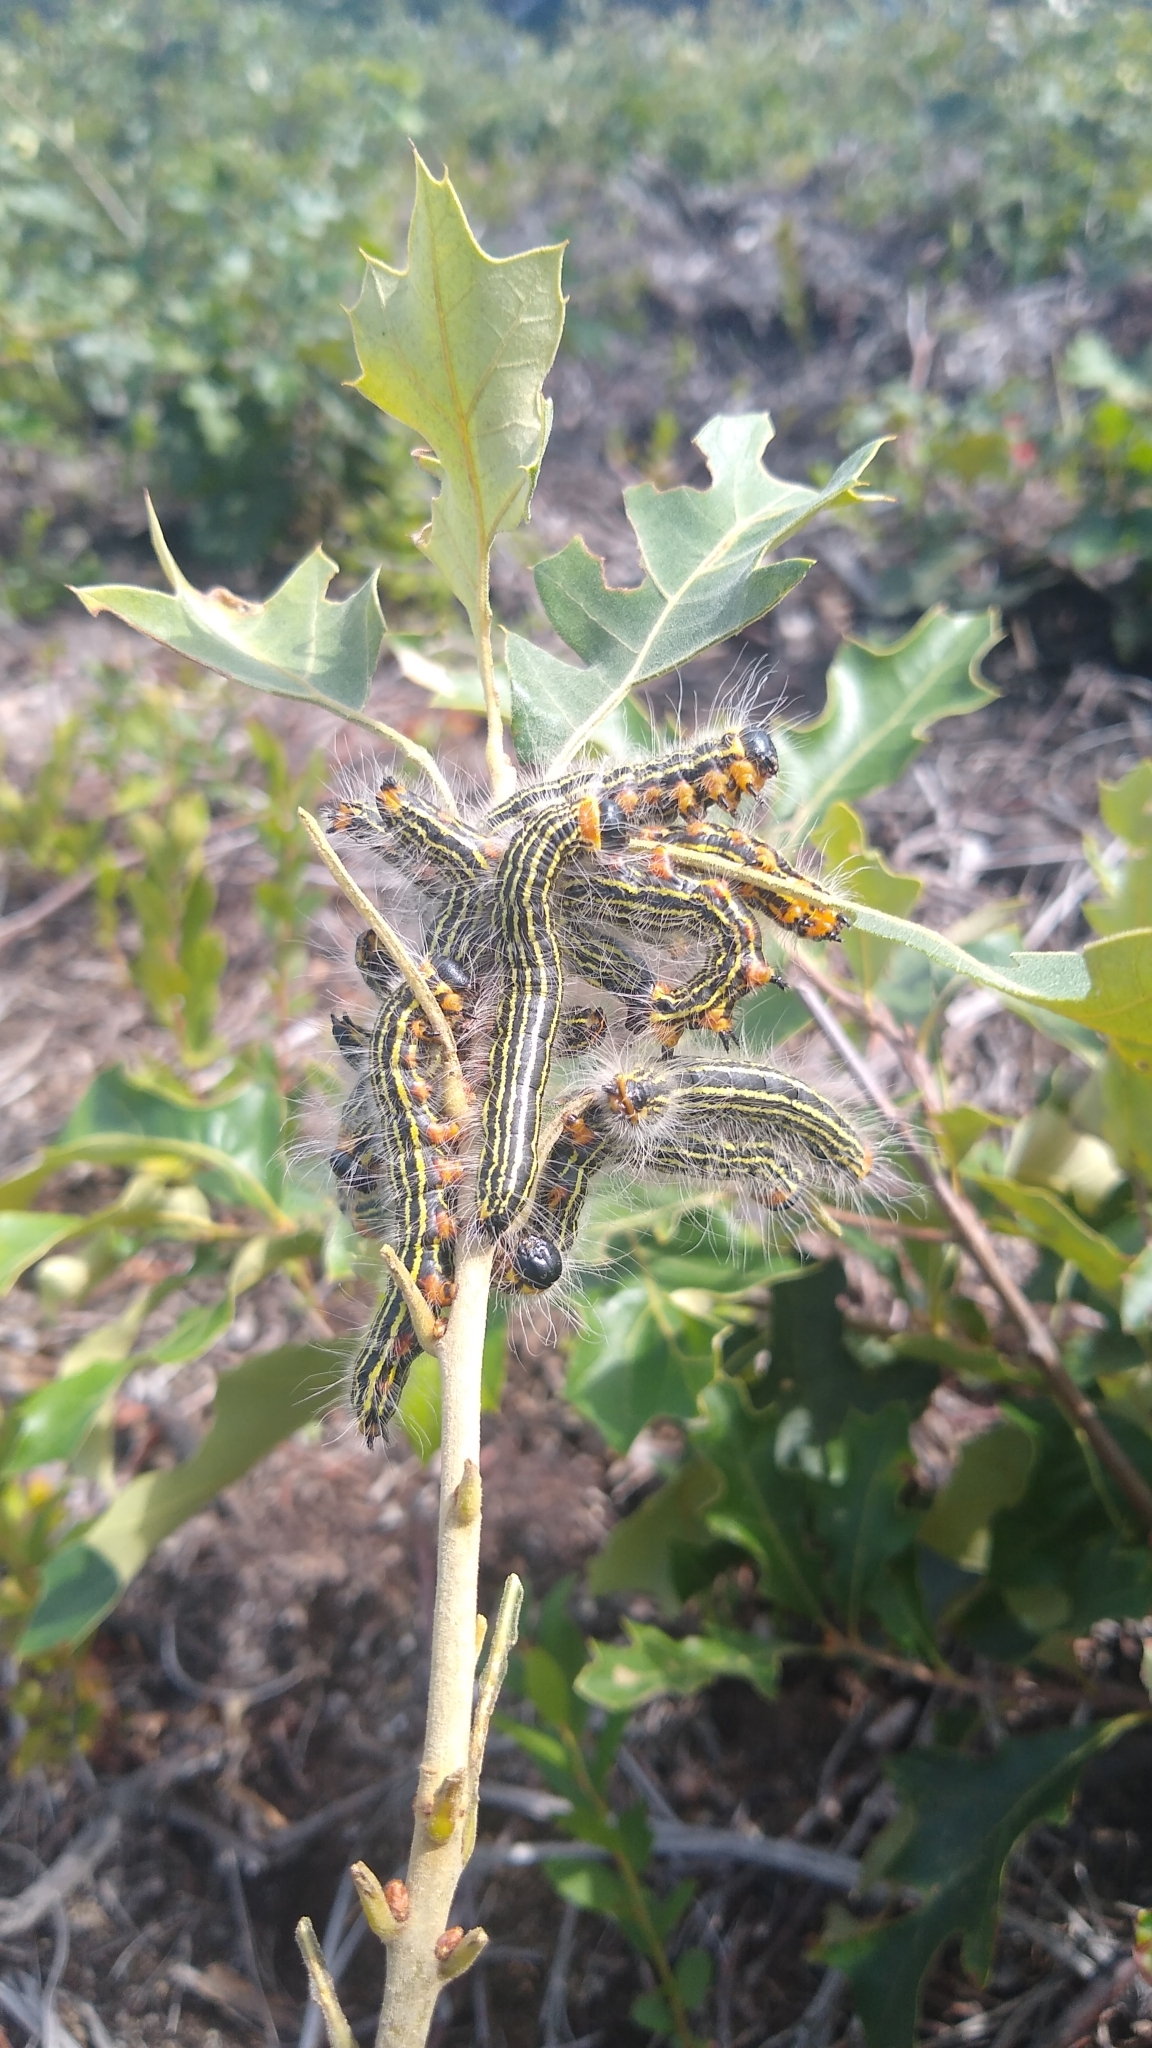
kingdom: Animalia
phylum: Arthropoda
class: Insecta
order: Lepidoptera
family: Notodontidae
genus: Datana
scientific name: Datana ministra
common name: Yellow-necked caterpillar moth
